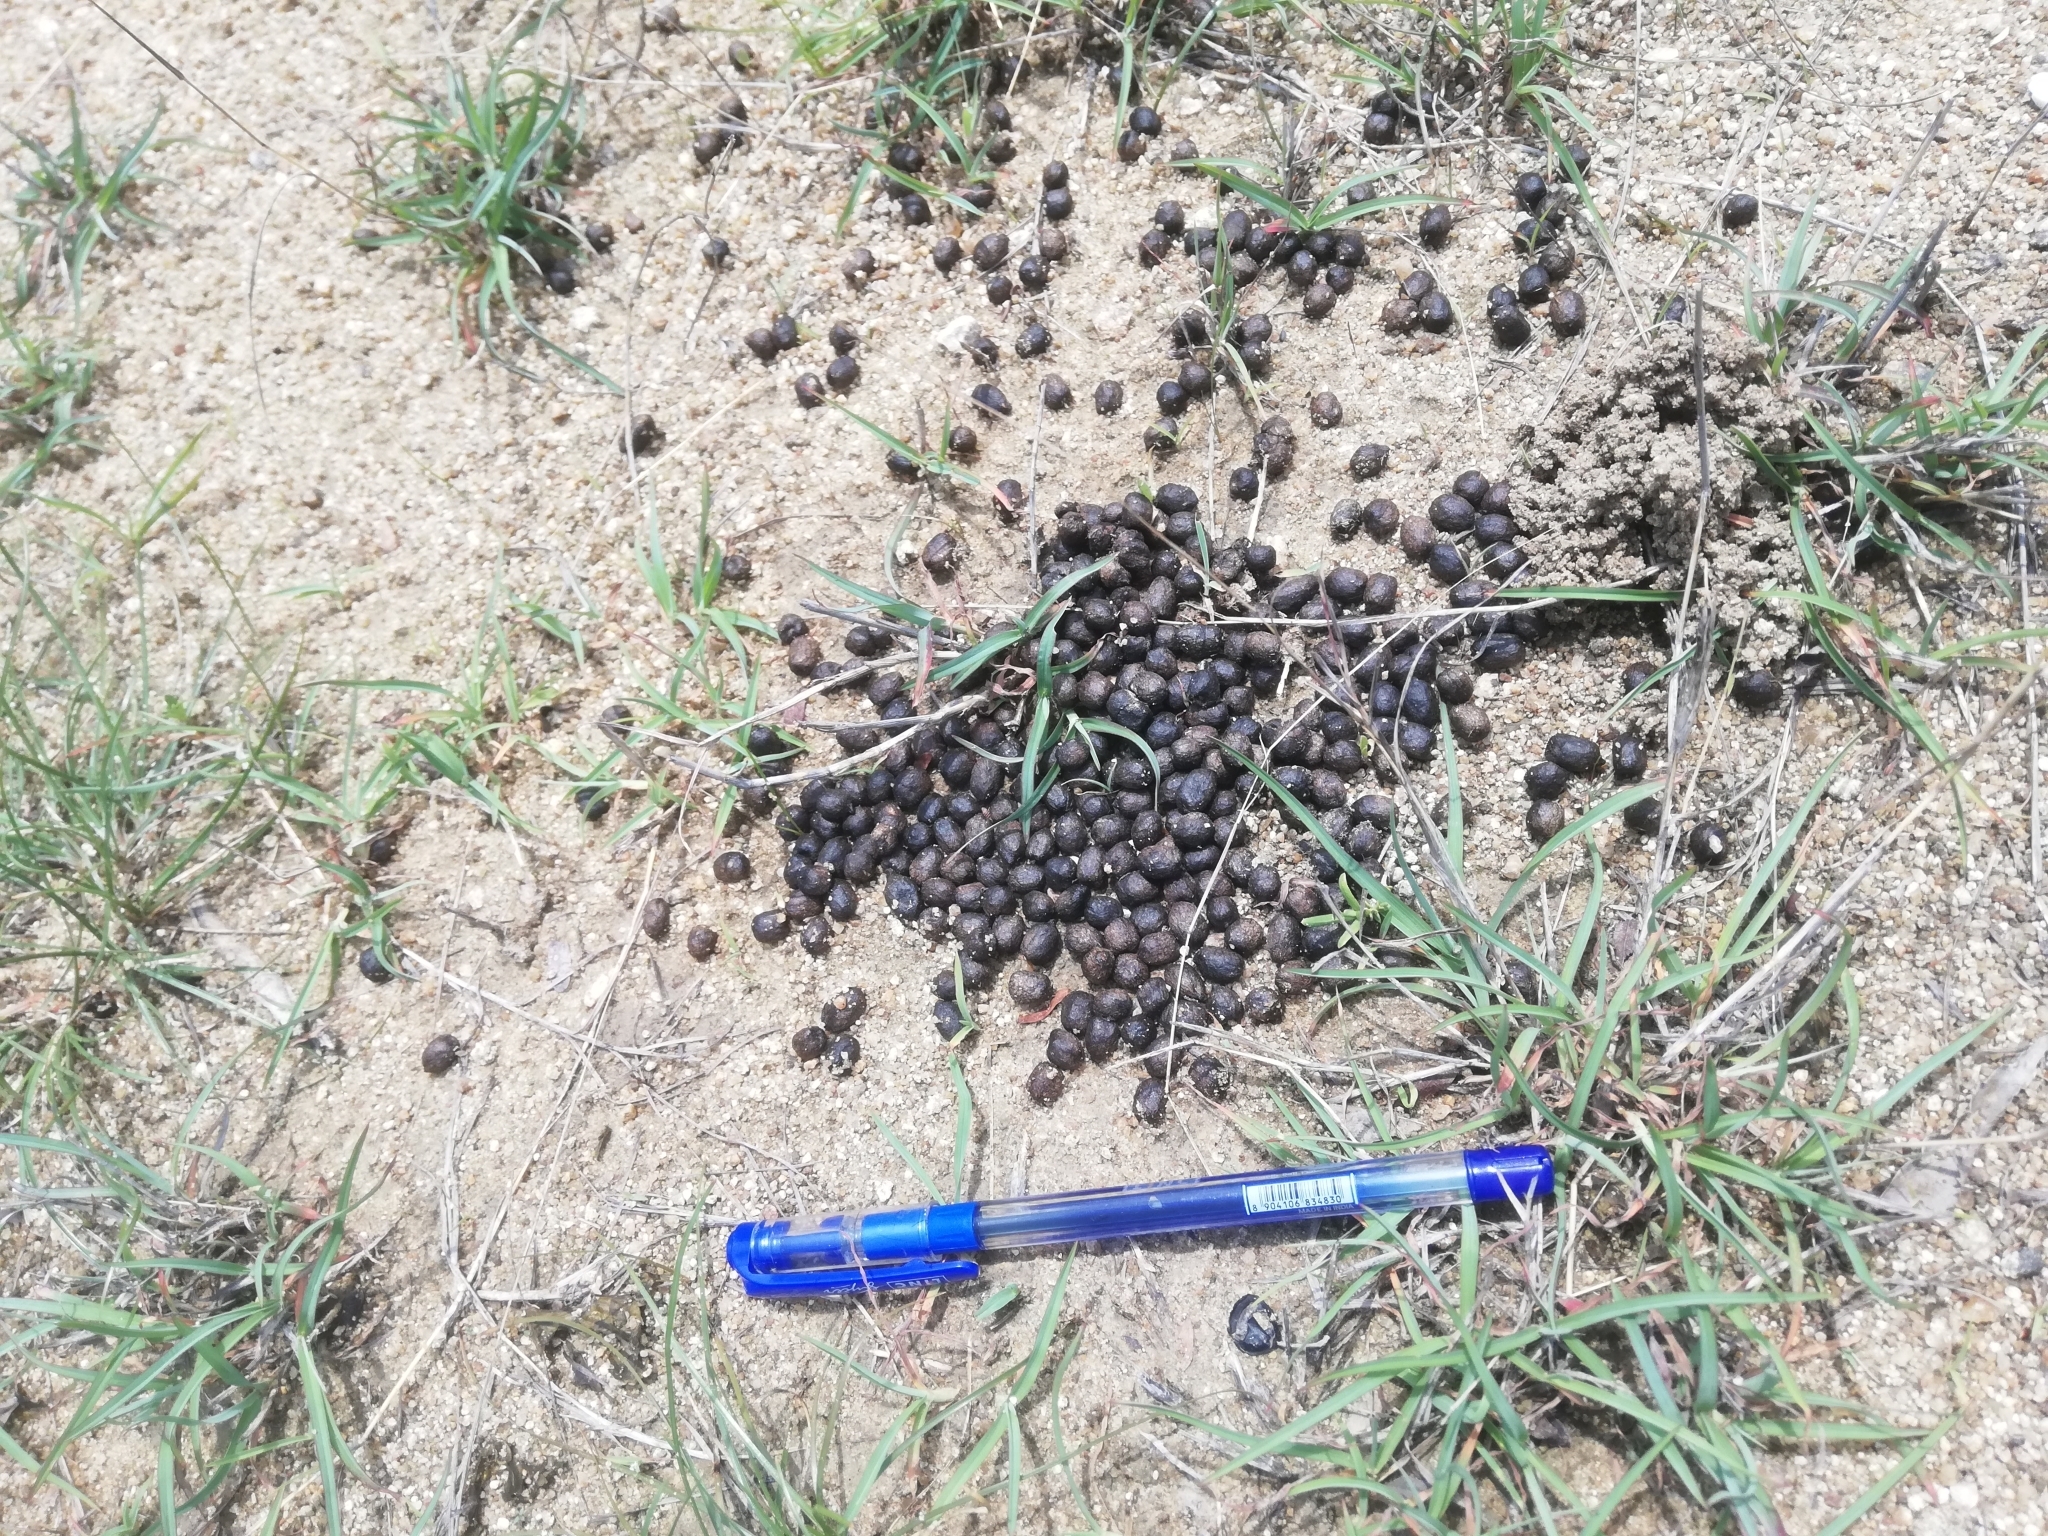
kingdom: Animalia
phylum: Chordata
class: Mammalia
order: Artiodactyla
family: Bovidae
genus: Antilope
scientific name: Antilope cervicapra
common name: Blackbuck
